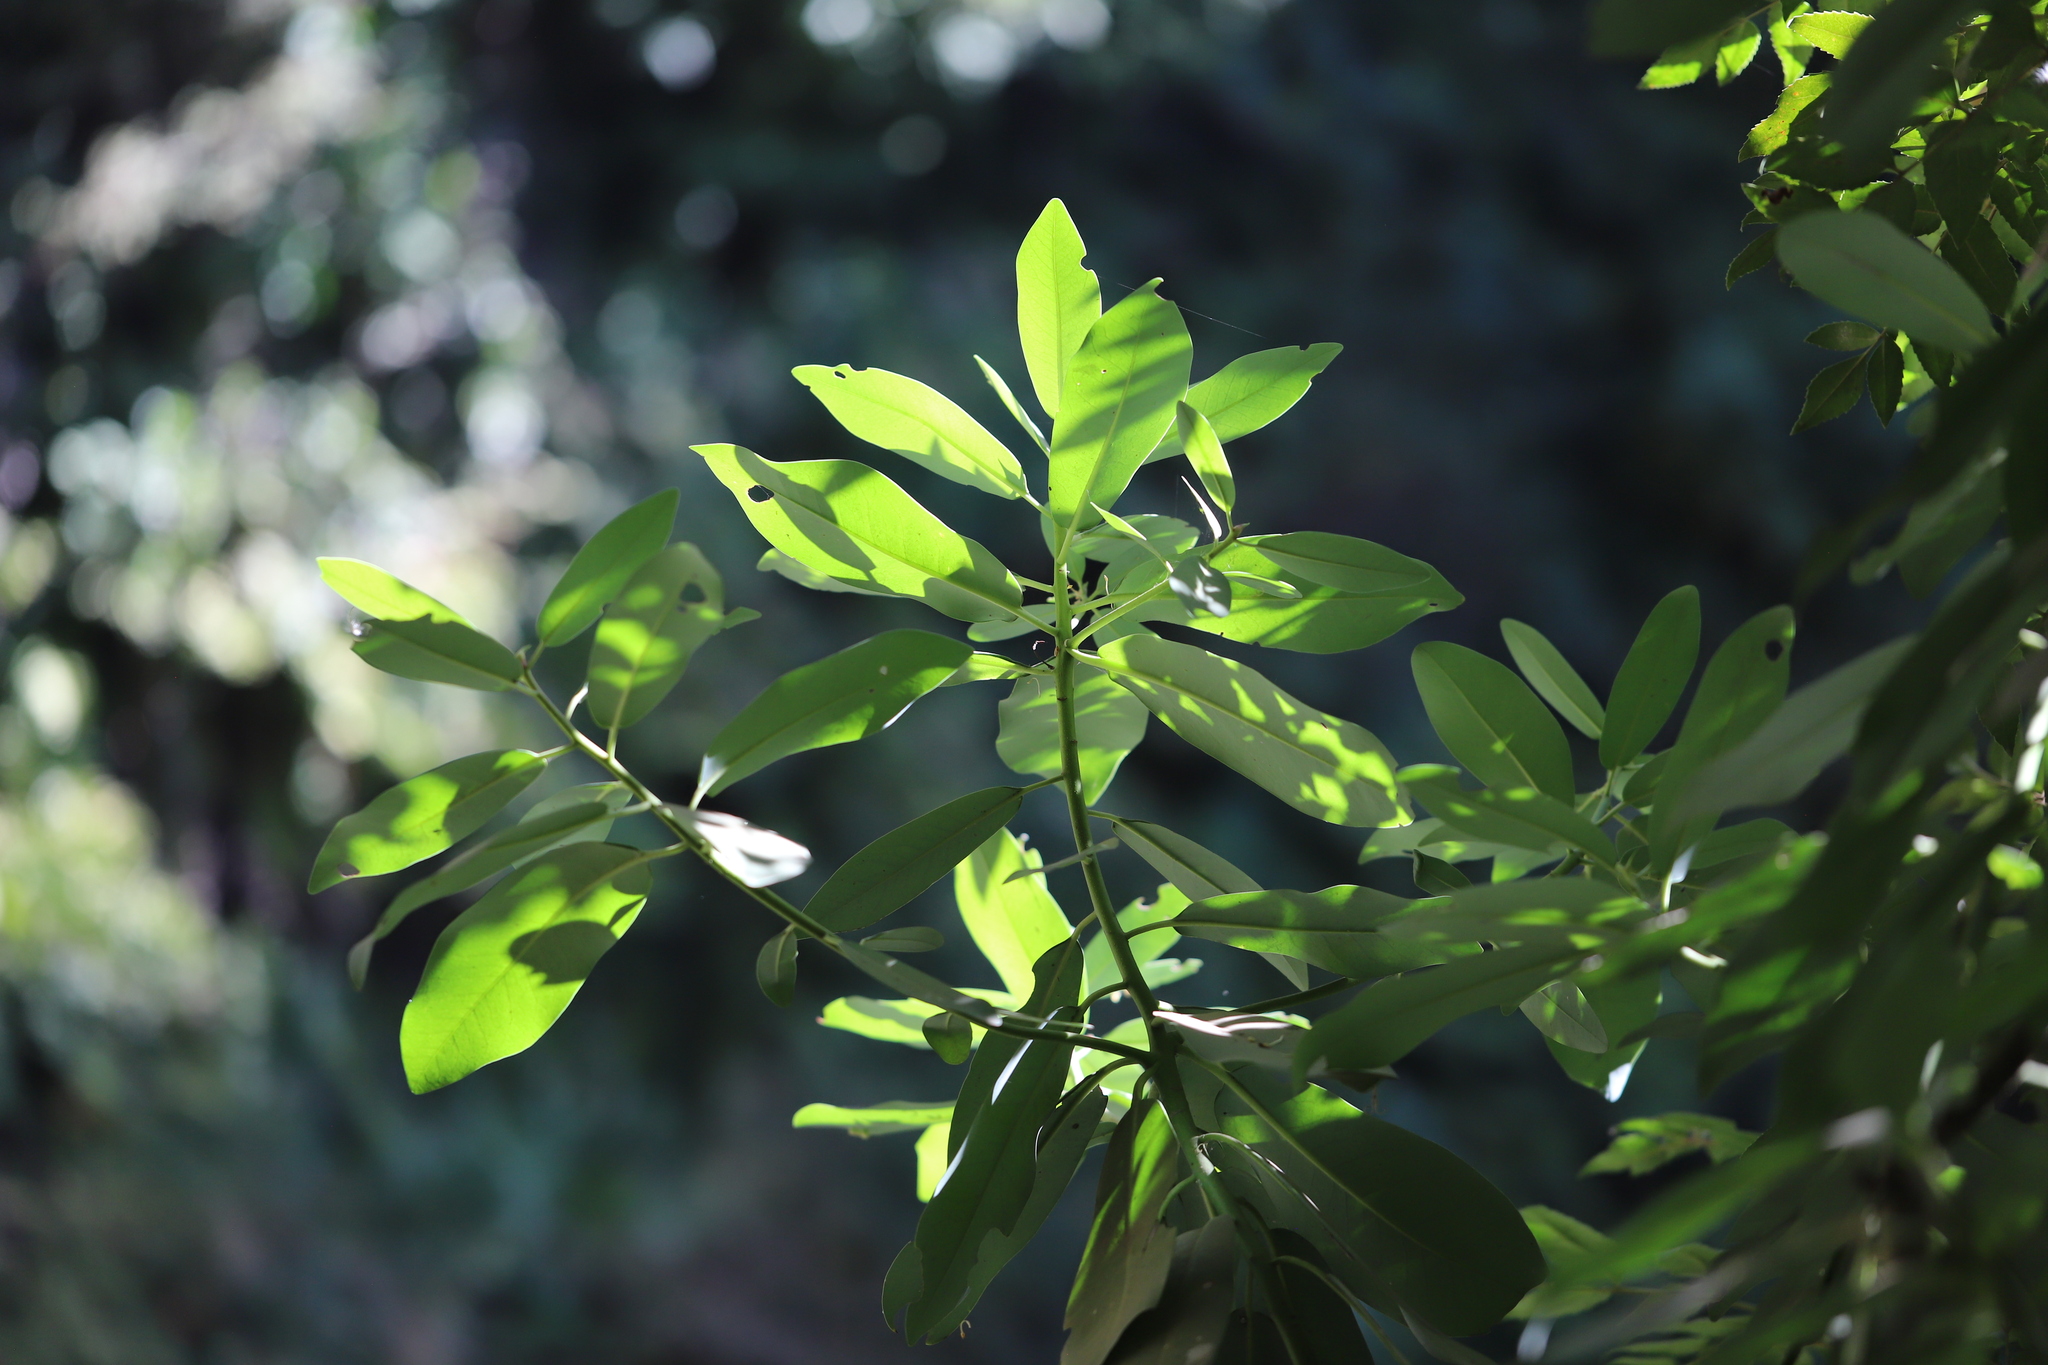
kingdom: Plantae
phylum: Tracheophyta
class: Magnoliopsida
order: Canellales
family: Winteraceae
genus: Drimys
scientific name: Drimys winteri
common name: Winter's-bark
